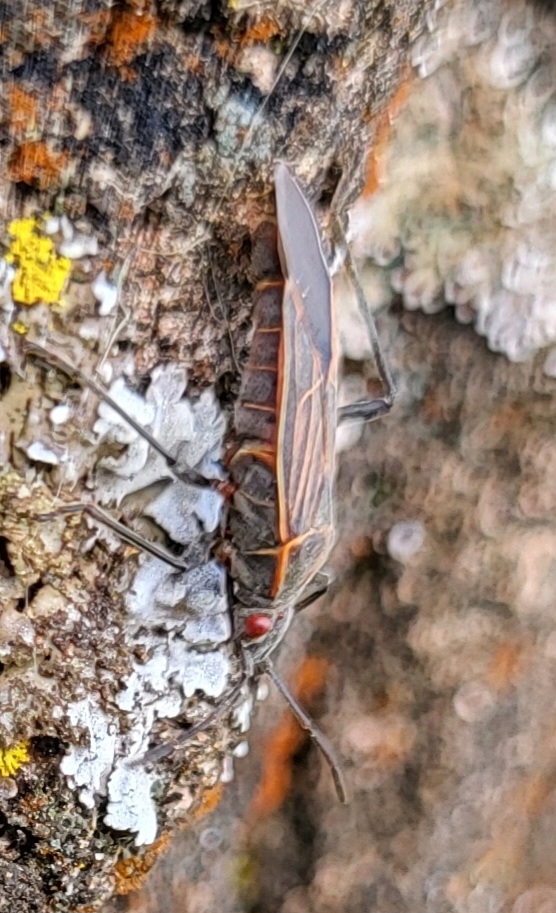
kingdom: Animalia
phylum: Arthropoda
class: Insecta
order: Hemiptera
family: Rhopalidae
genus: Boisea
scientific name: Boisea rubrolineata
